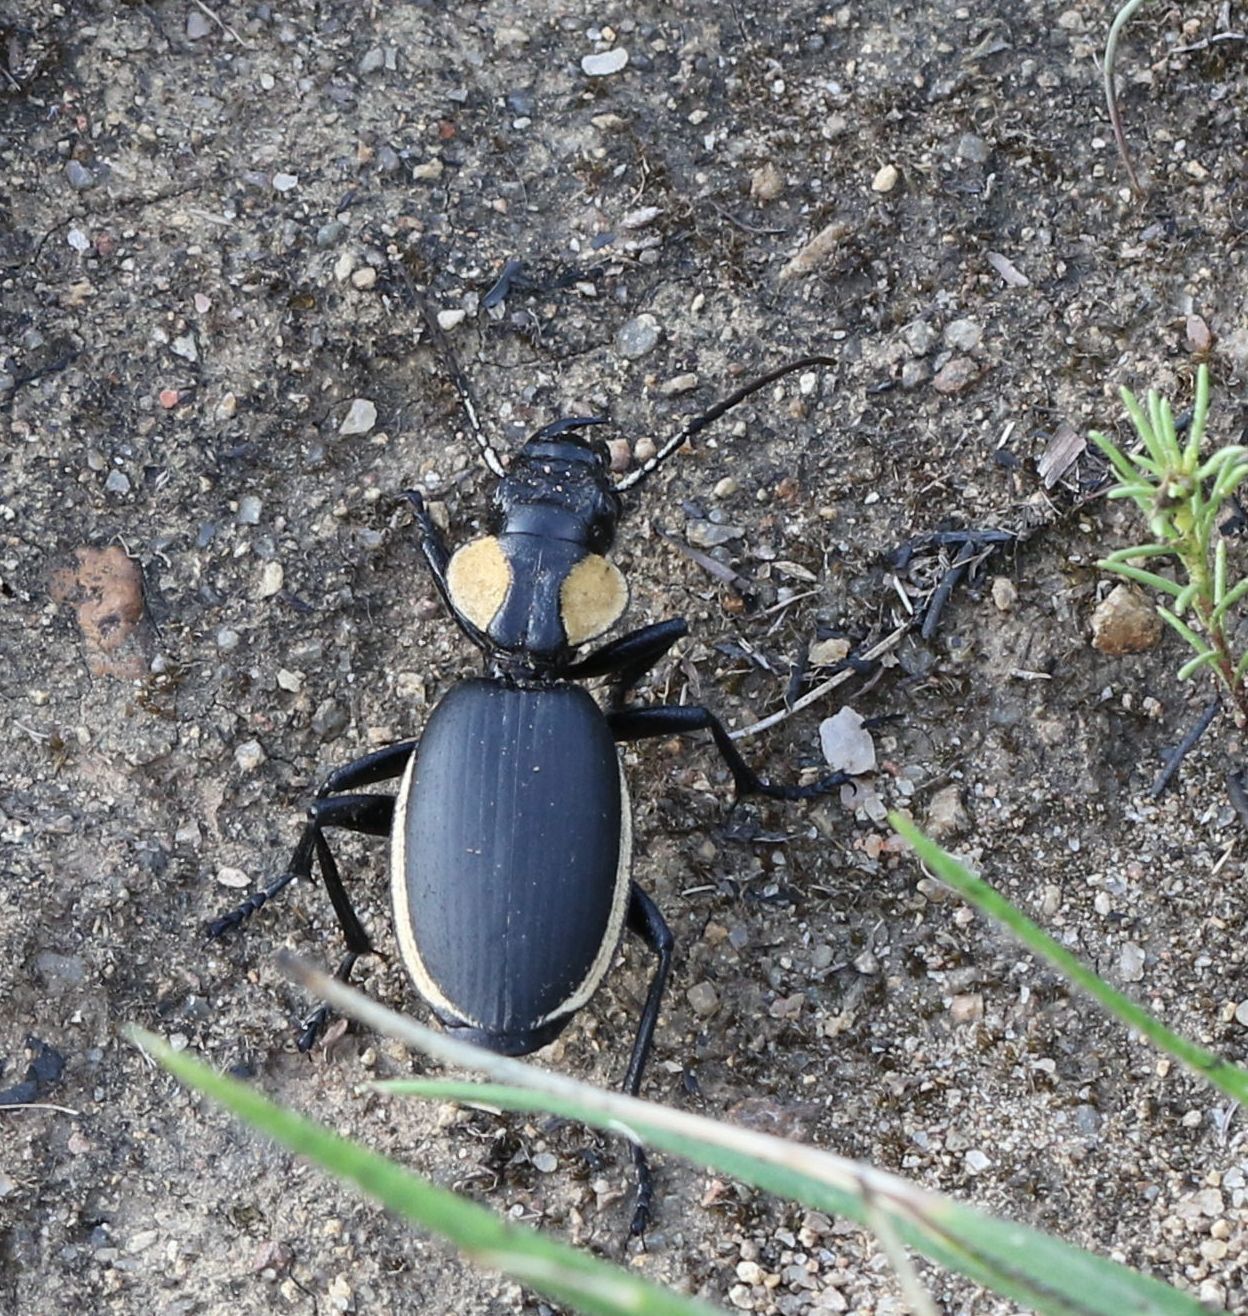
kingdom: Animalia
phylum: Arthropoda
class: Insecta
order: Coleoptera
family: Carabidae
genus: Anthia
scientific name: Anthia thoracica
